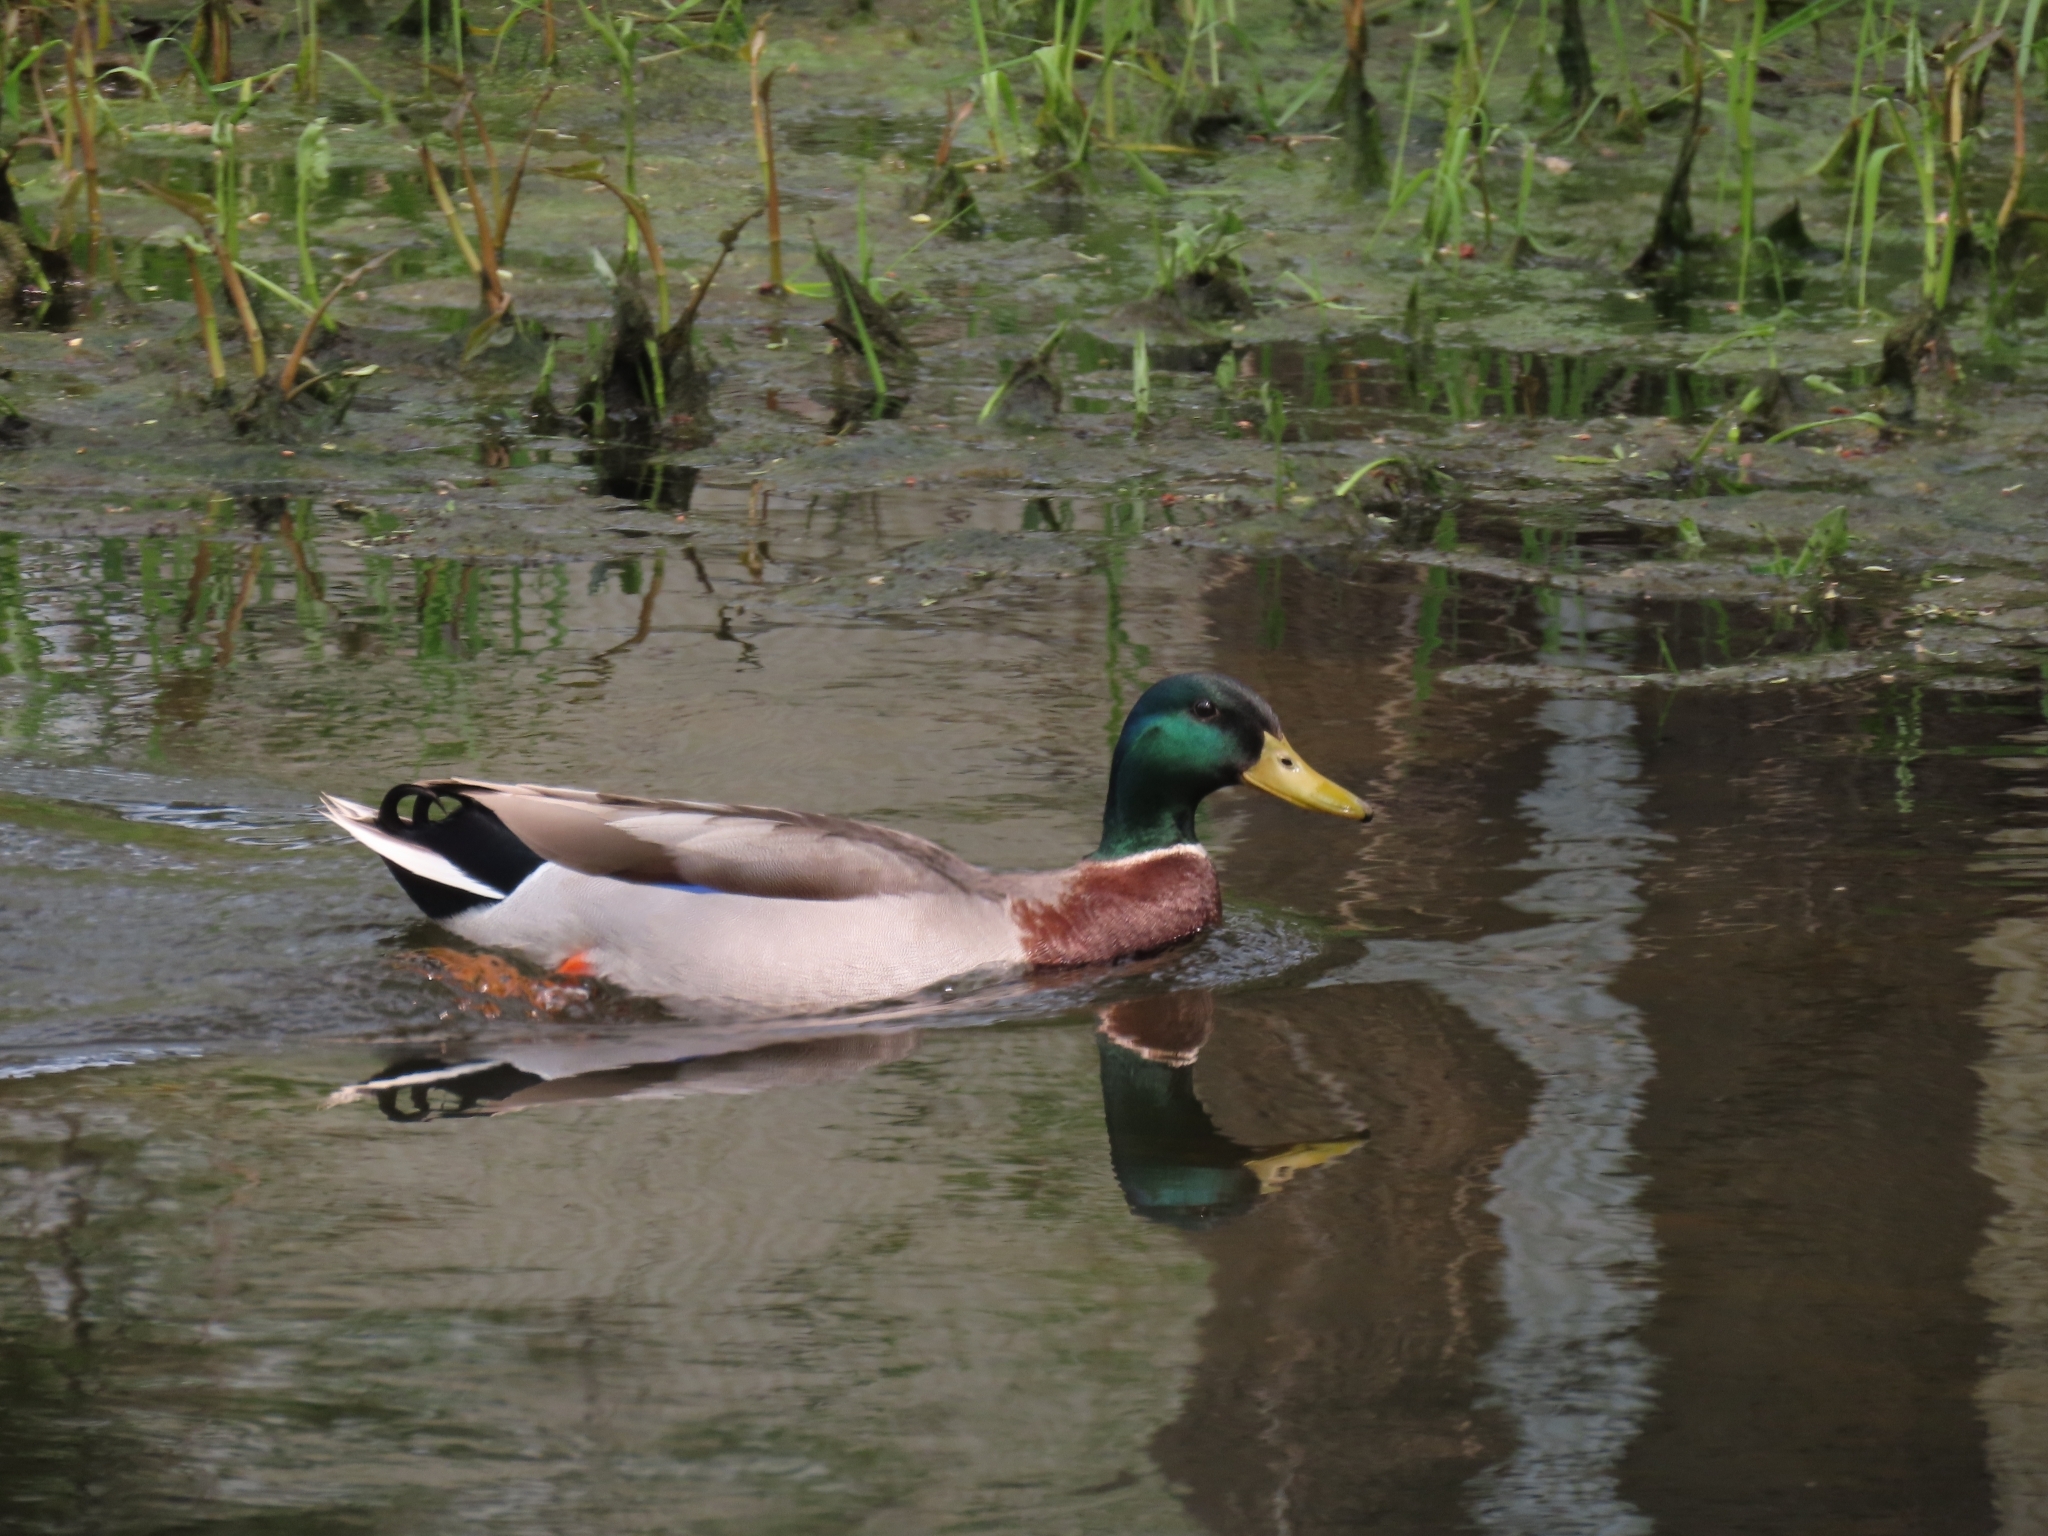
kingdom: Animalia
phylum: Chordata
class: Aves
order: Anseriformes
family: Anatidae
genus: Anas
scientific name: Anas platyrhynchos
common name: Mallard
